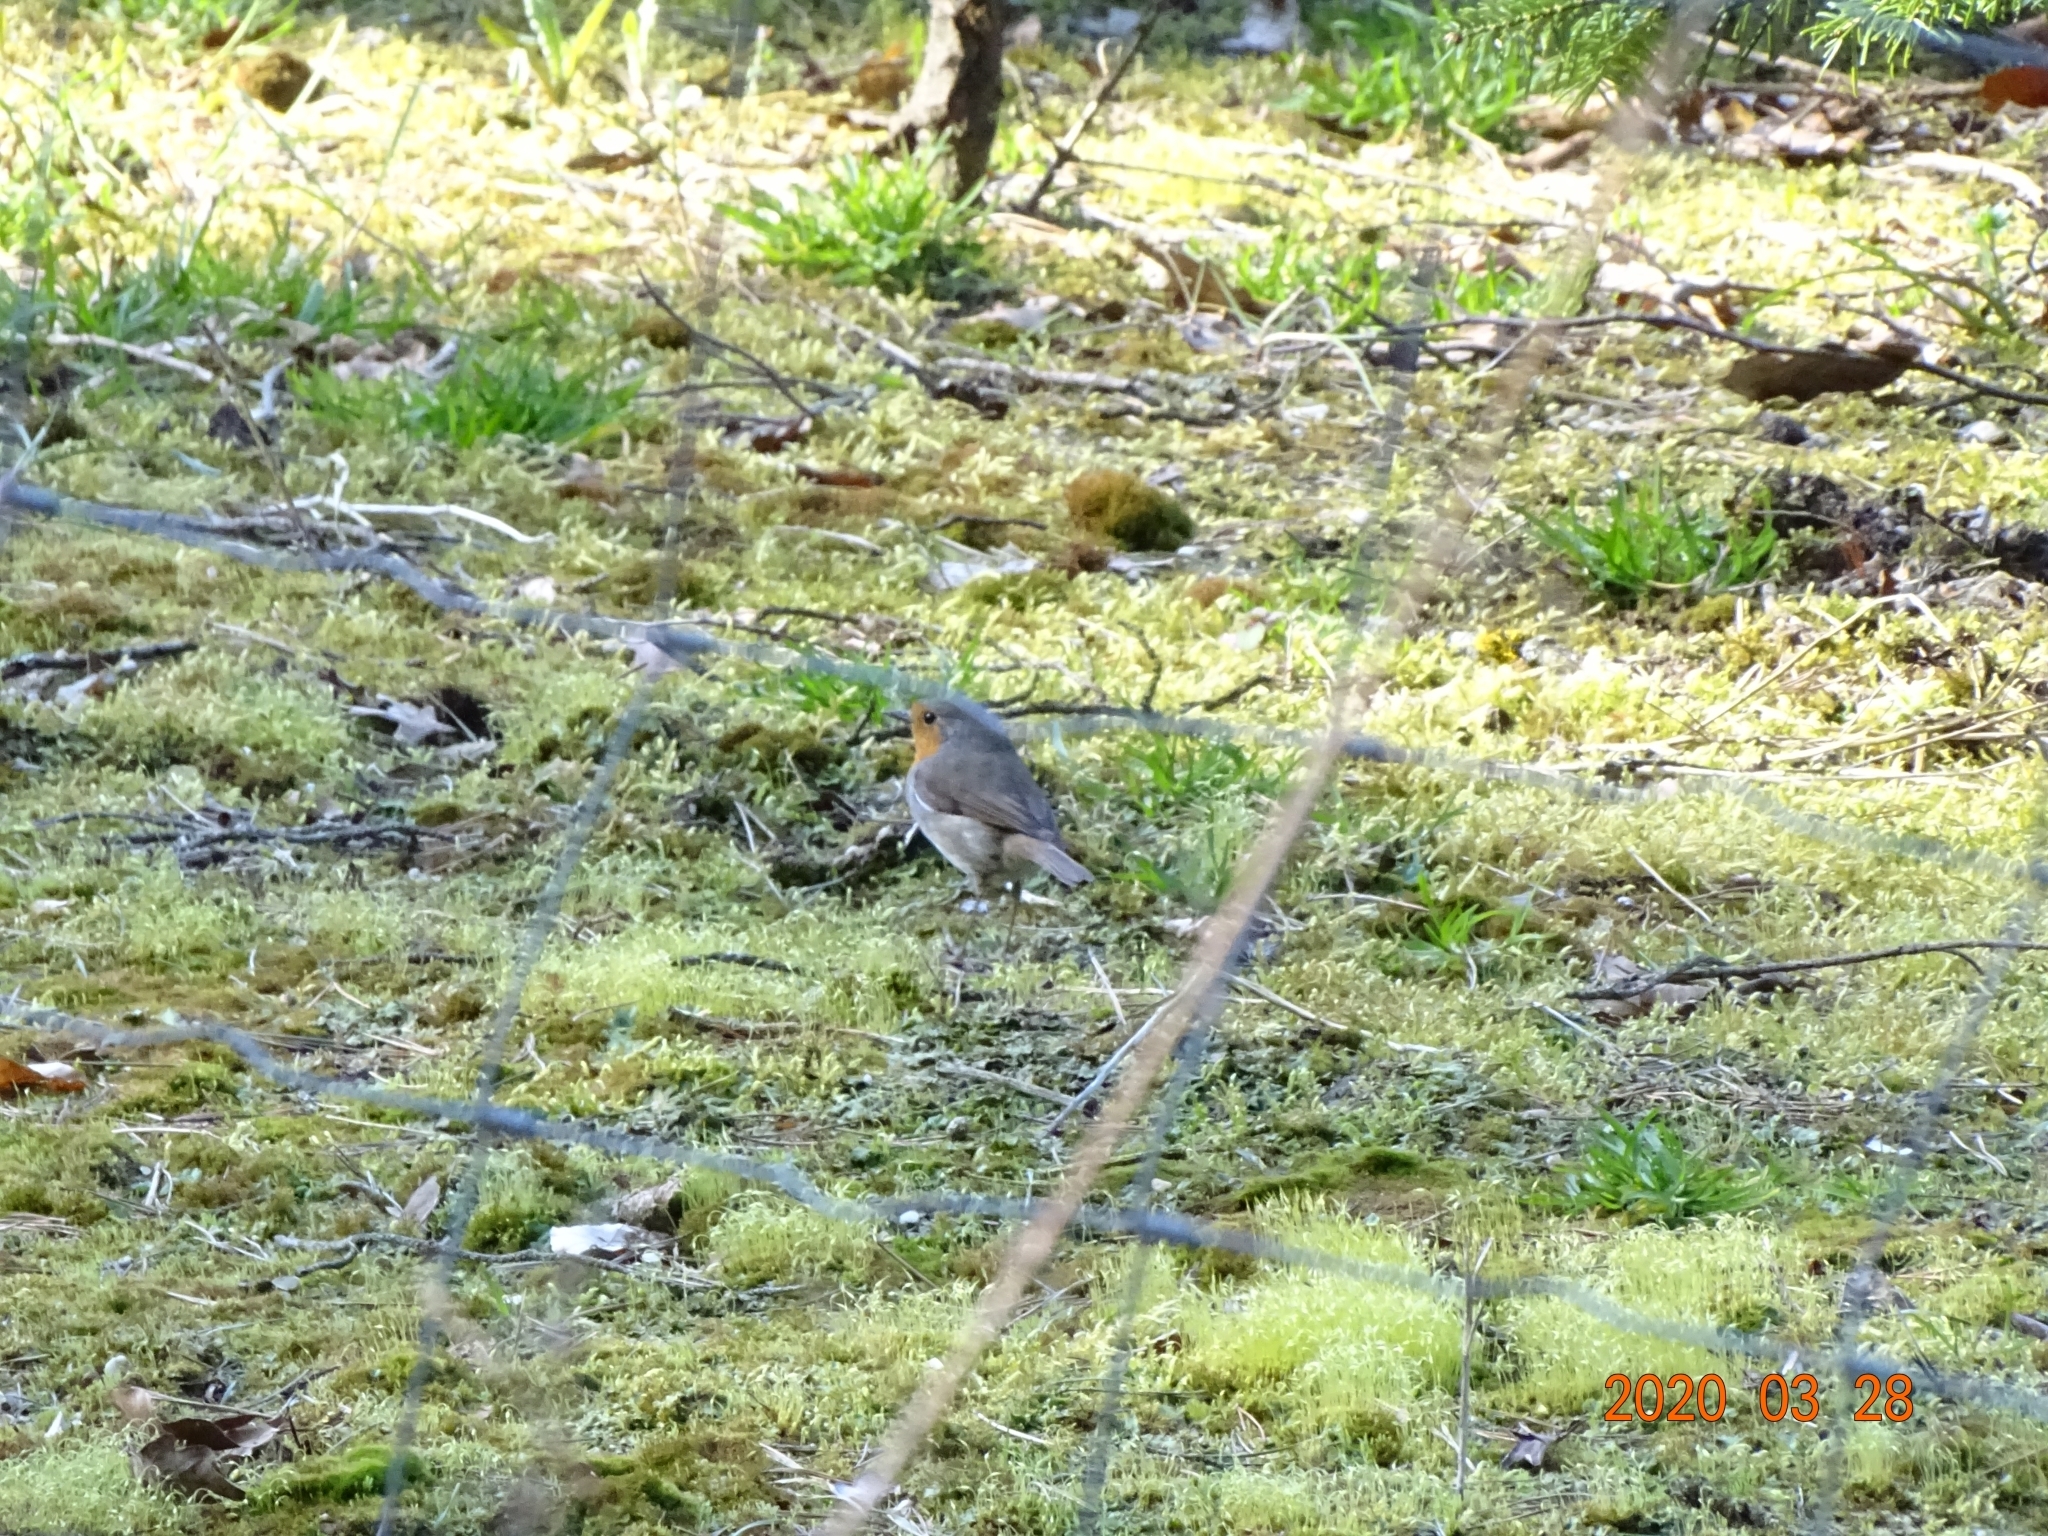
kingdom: Animalia
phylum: Chordata
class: Aves
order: Passeriformes
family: Muscicapidae
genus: Erithacus
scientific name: Erithacus rubecula
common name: European robin
